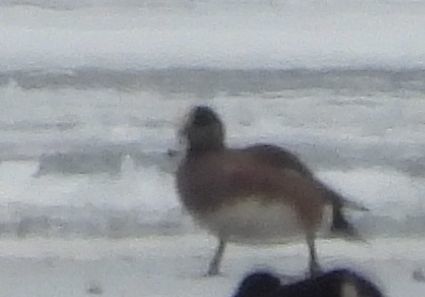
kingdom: Animalia
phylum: Chordata
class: Aves
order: Anseriformes
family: Anatidae
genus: Mareca
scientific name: Mareca americana
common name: American wigeon
